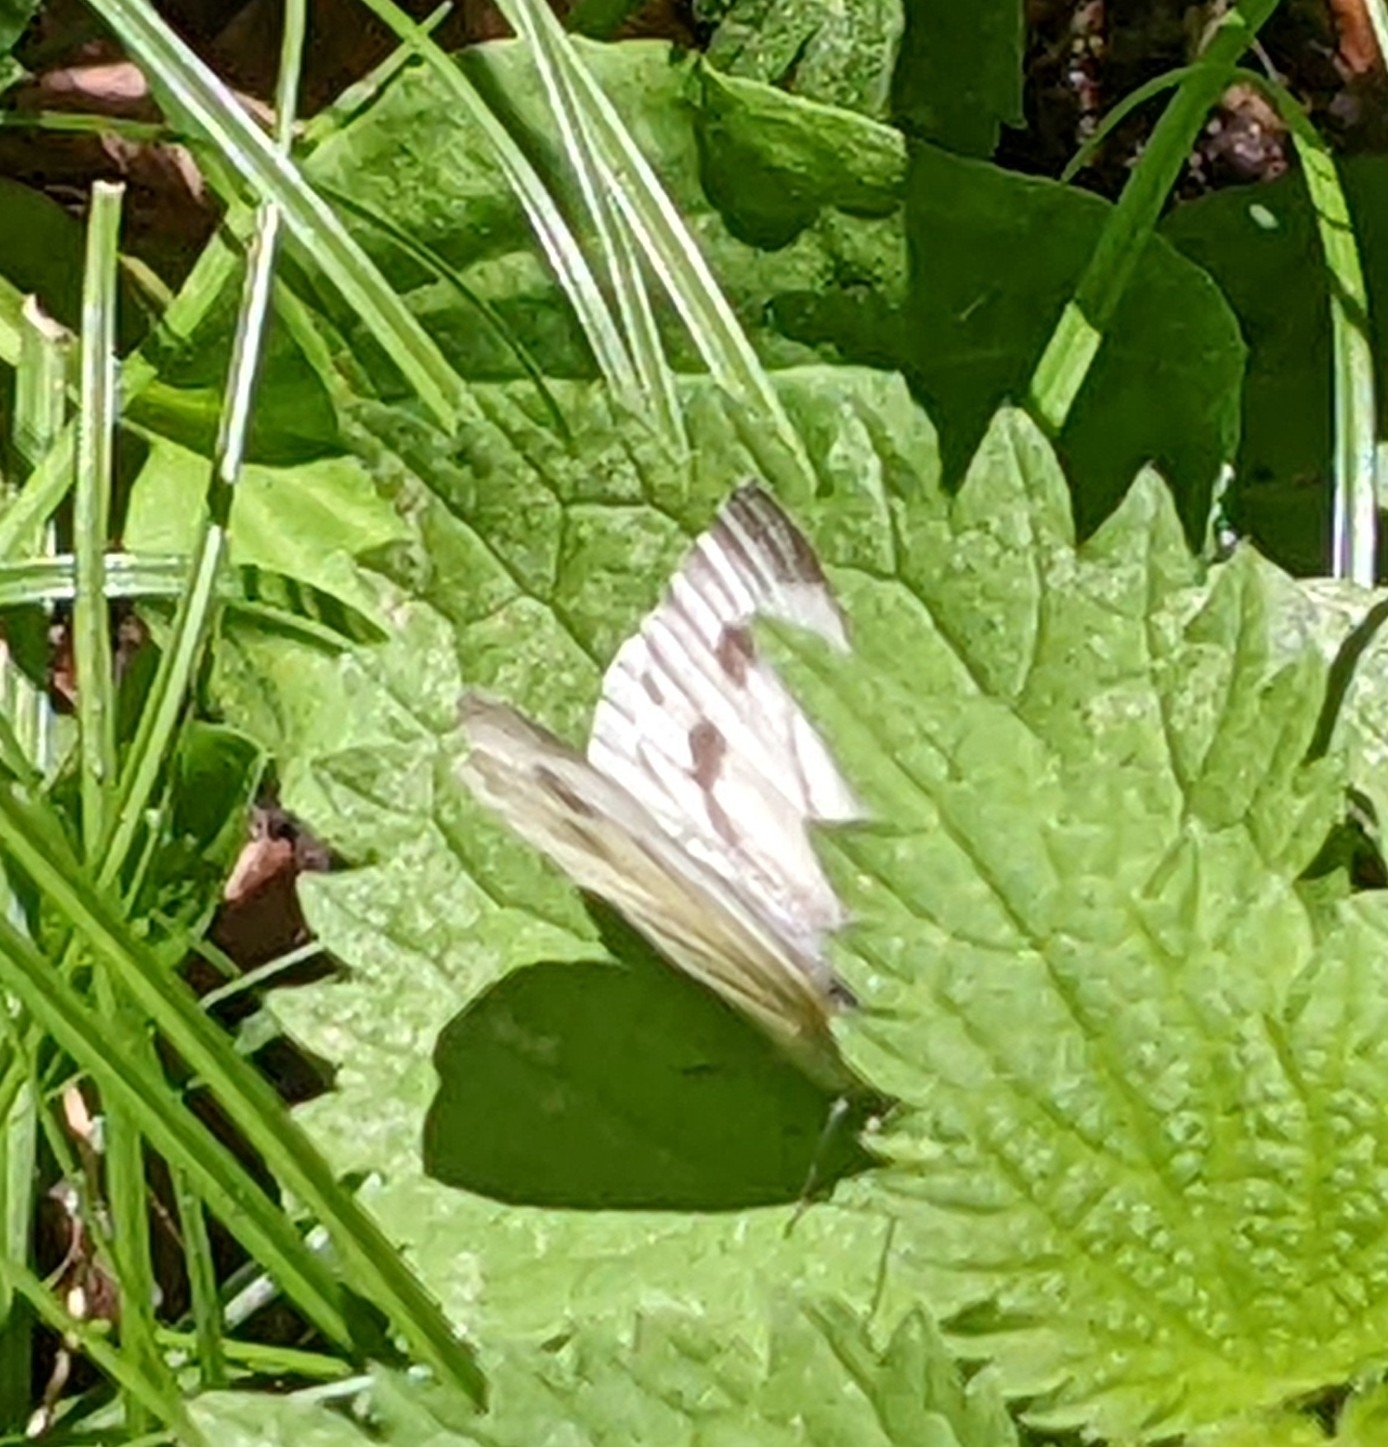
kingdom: Animalia
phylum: Arthropoda
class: Insecta
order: Lepidoptera
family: Pieridae
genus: Pieris
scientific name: Pieris napi
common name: Green-veined white
